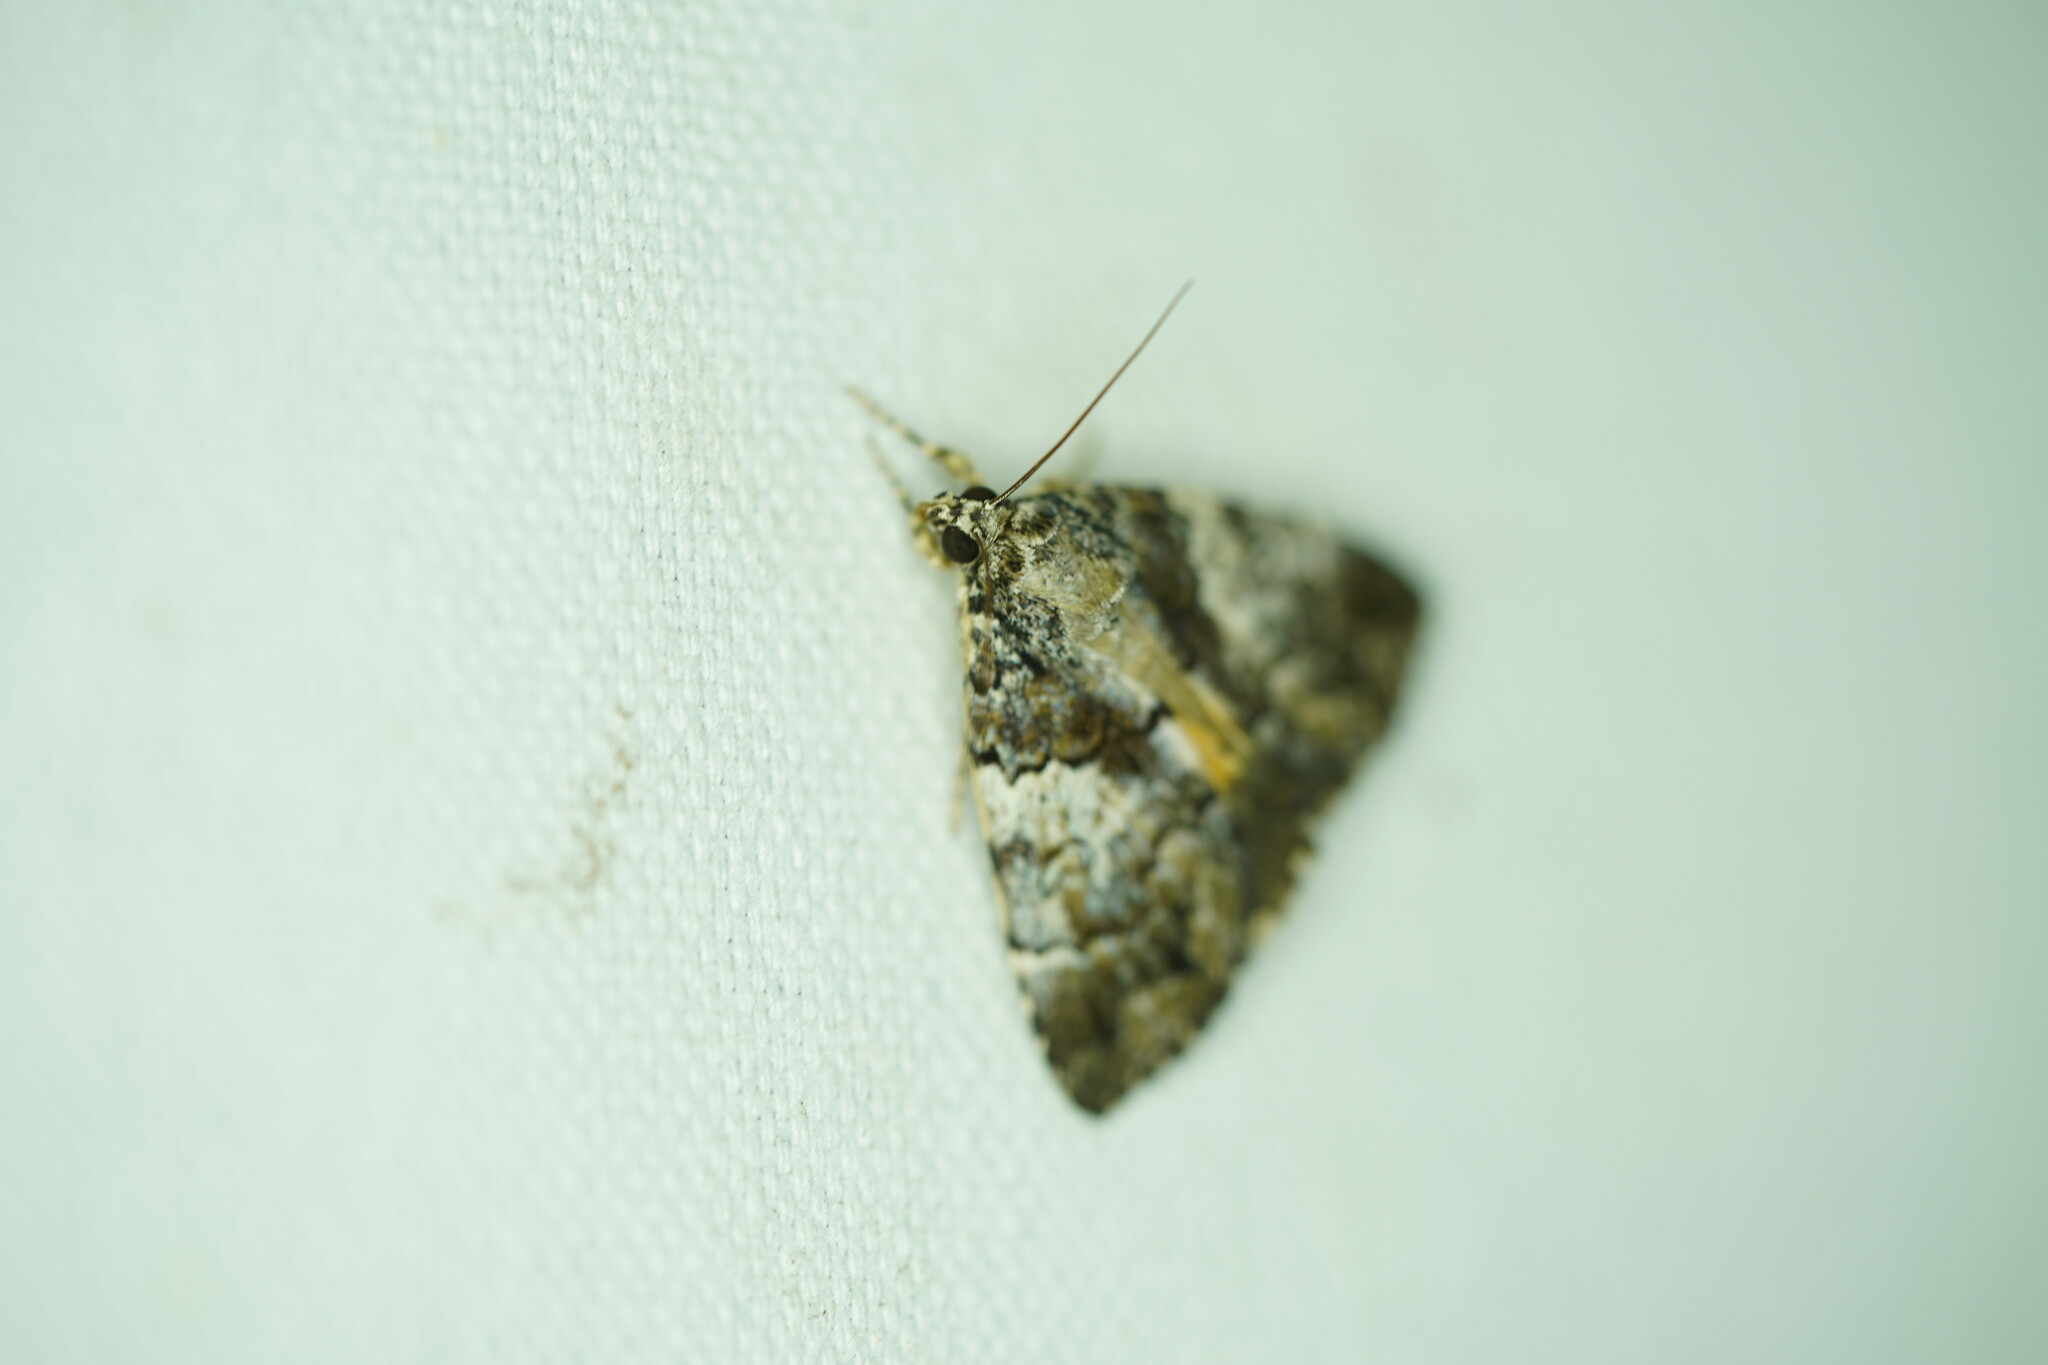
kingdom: Animalia
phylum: Arthropoda
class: Insecta
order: Lepidoptera
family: Erebidae
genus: Allotria
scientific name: Allotria elonympha
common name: False underwing
